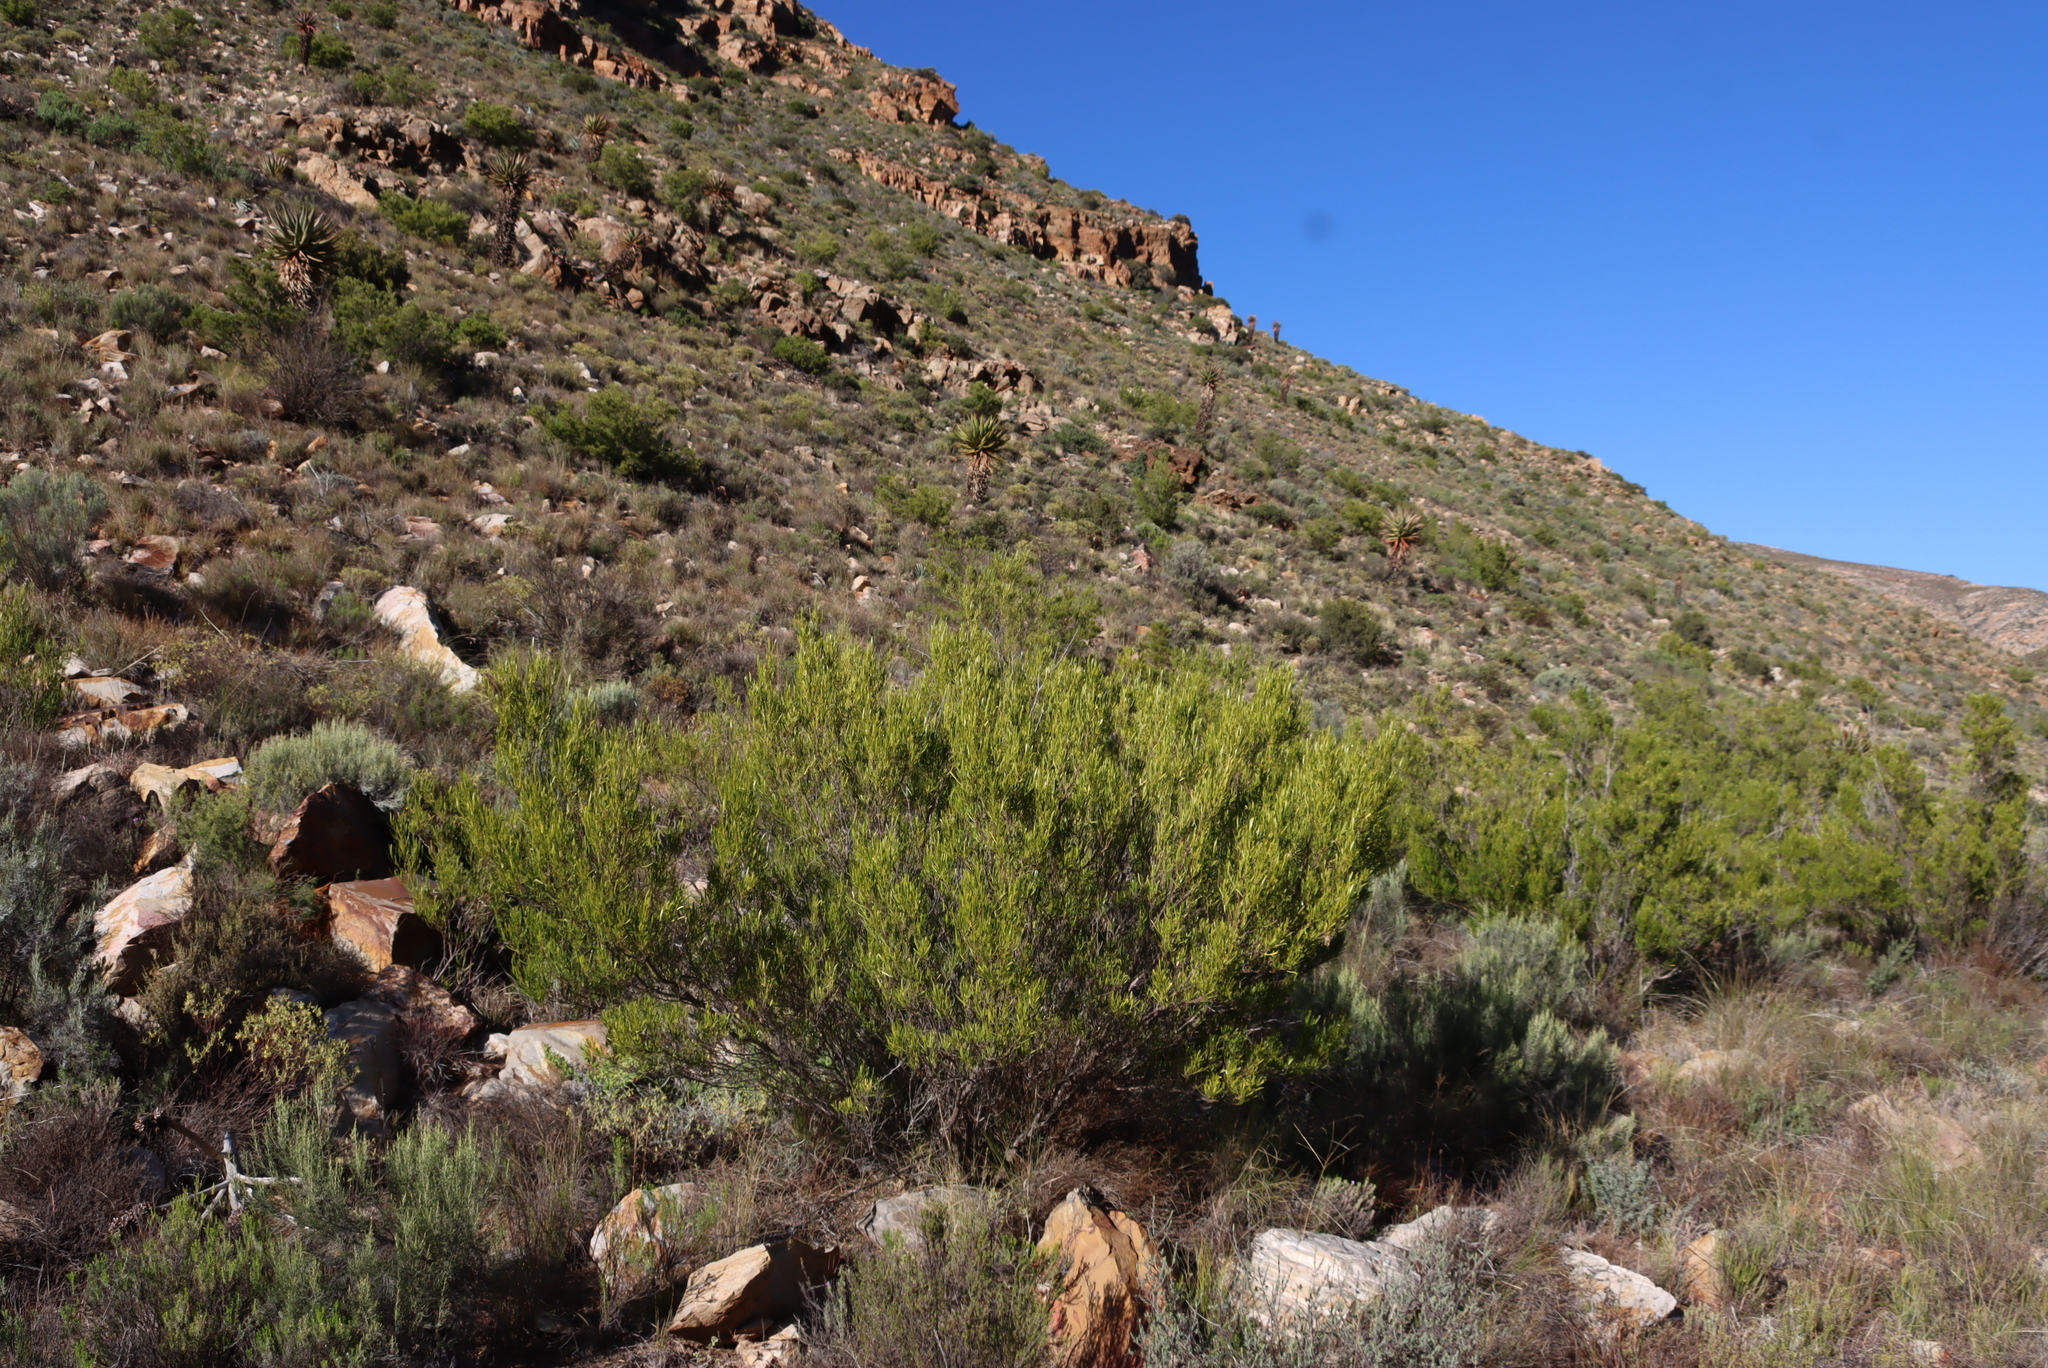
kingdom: Plantae
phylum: Tracheophyta
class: Magnoliopsida
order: Sapindales
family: Sapindaceae
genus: Dodonaea
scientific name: Dodonaea viscosa
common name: Hopbush
